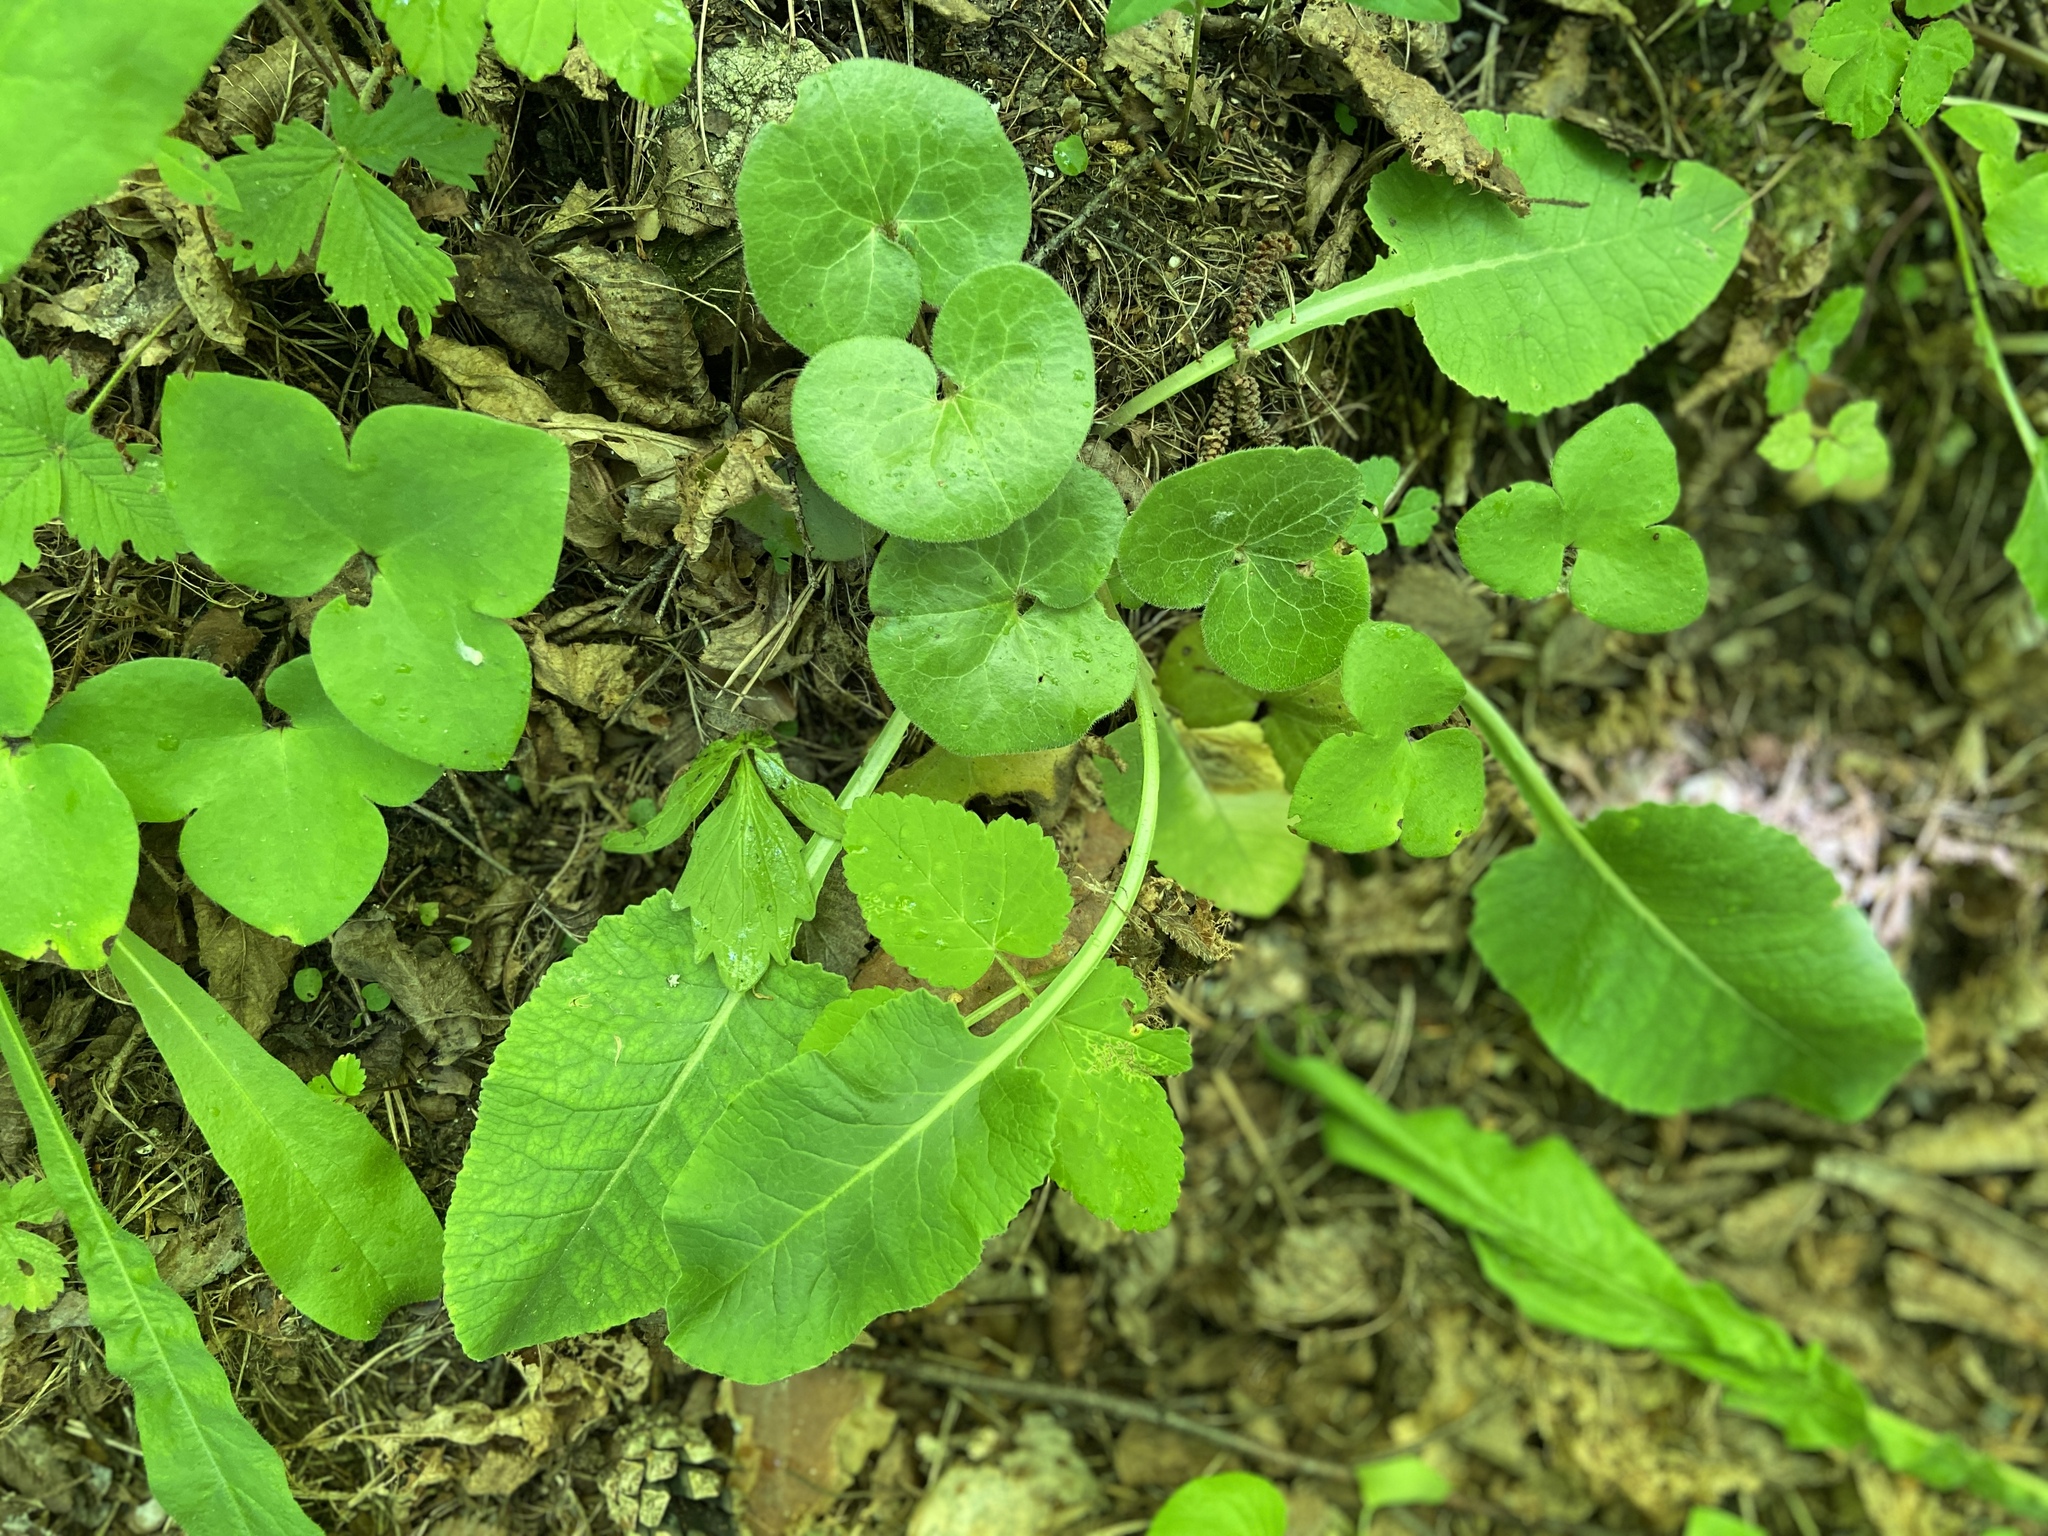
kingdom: Plantae
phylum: Tracheophyta
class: Magnoliopsida
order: Piperales
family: Aristolochiaceae
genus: Asarum
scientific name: Asarum europaeum
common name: Asarabacca
